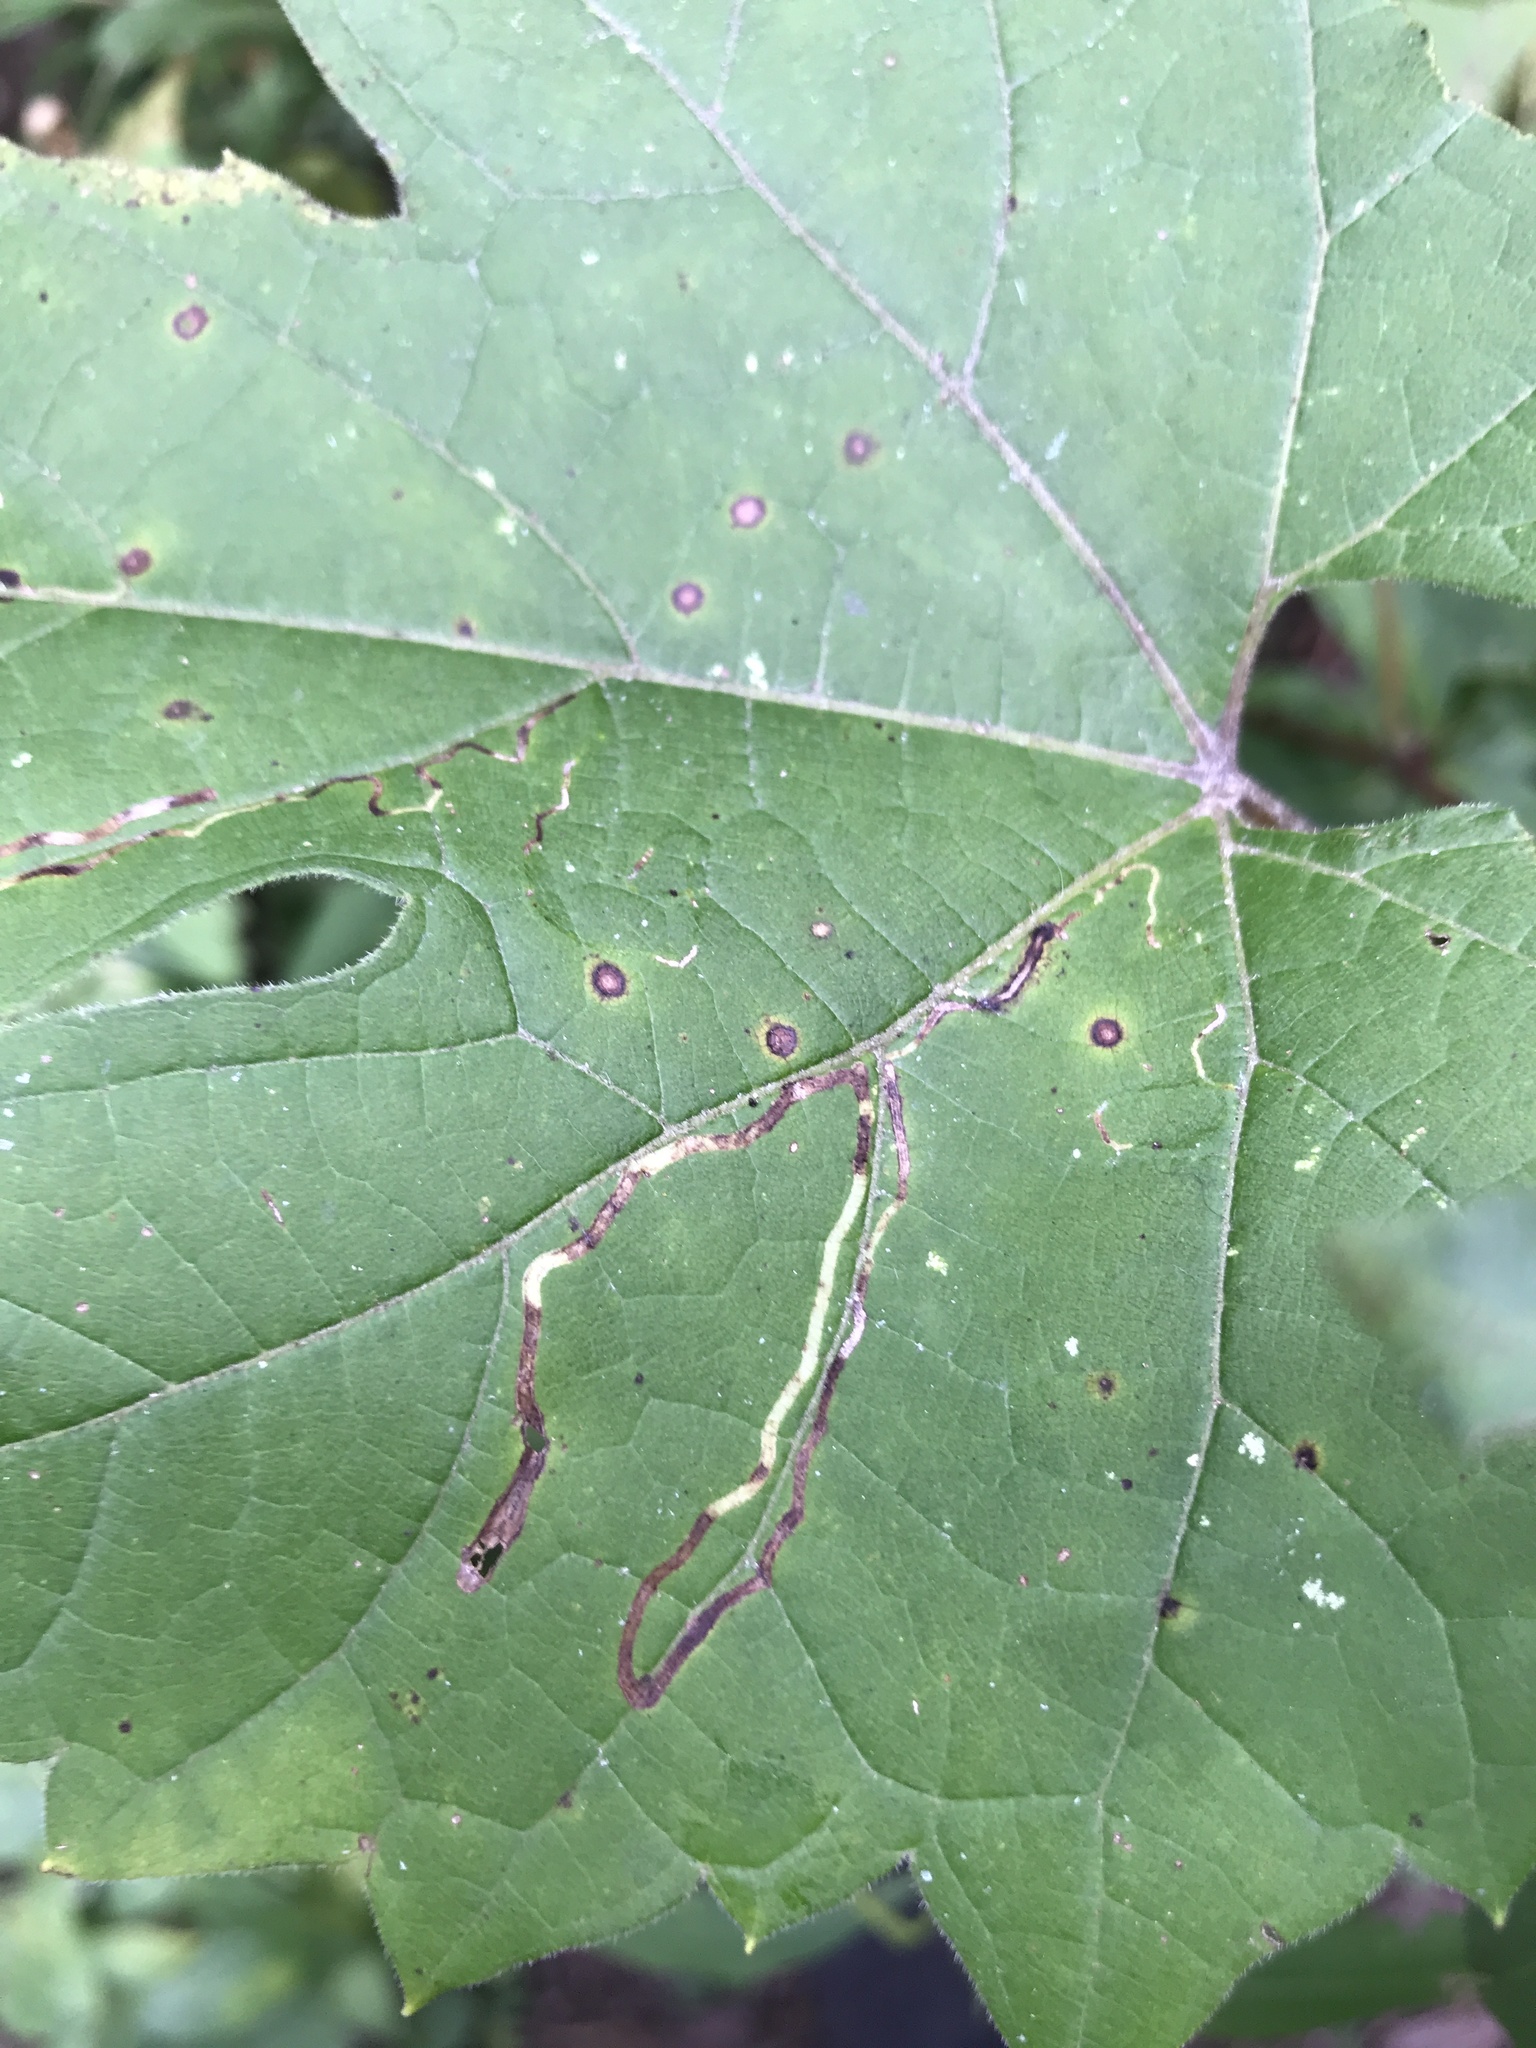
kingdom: Animalia
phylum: Arthropoda
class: Insecta
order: Lepidoptera
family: Gracillariidae
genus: Phyllocnistis
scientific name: Phyllocnistis vitifoliella
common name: Grape leaf-miner moth
